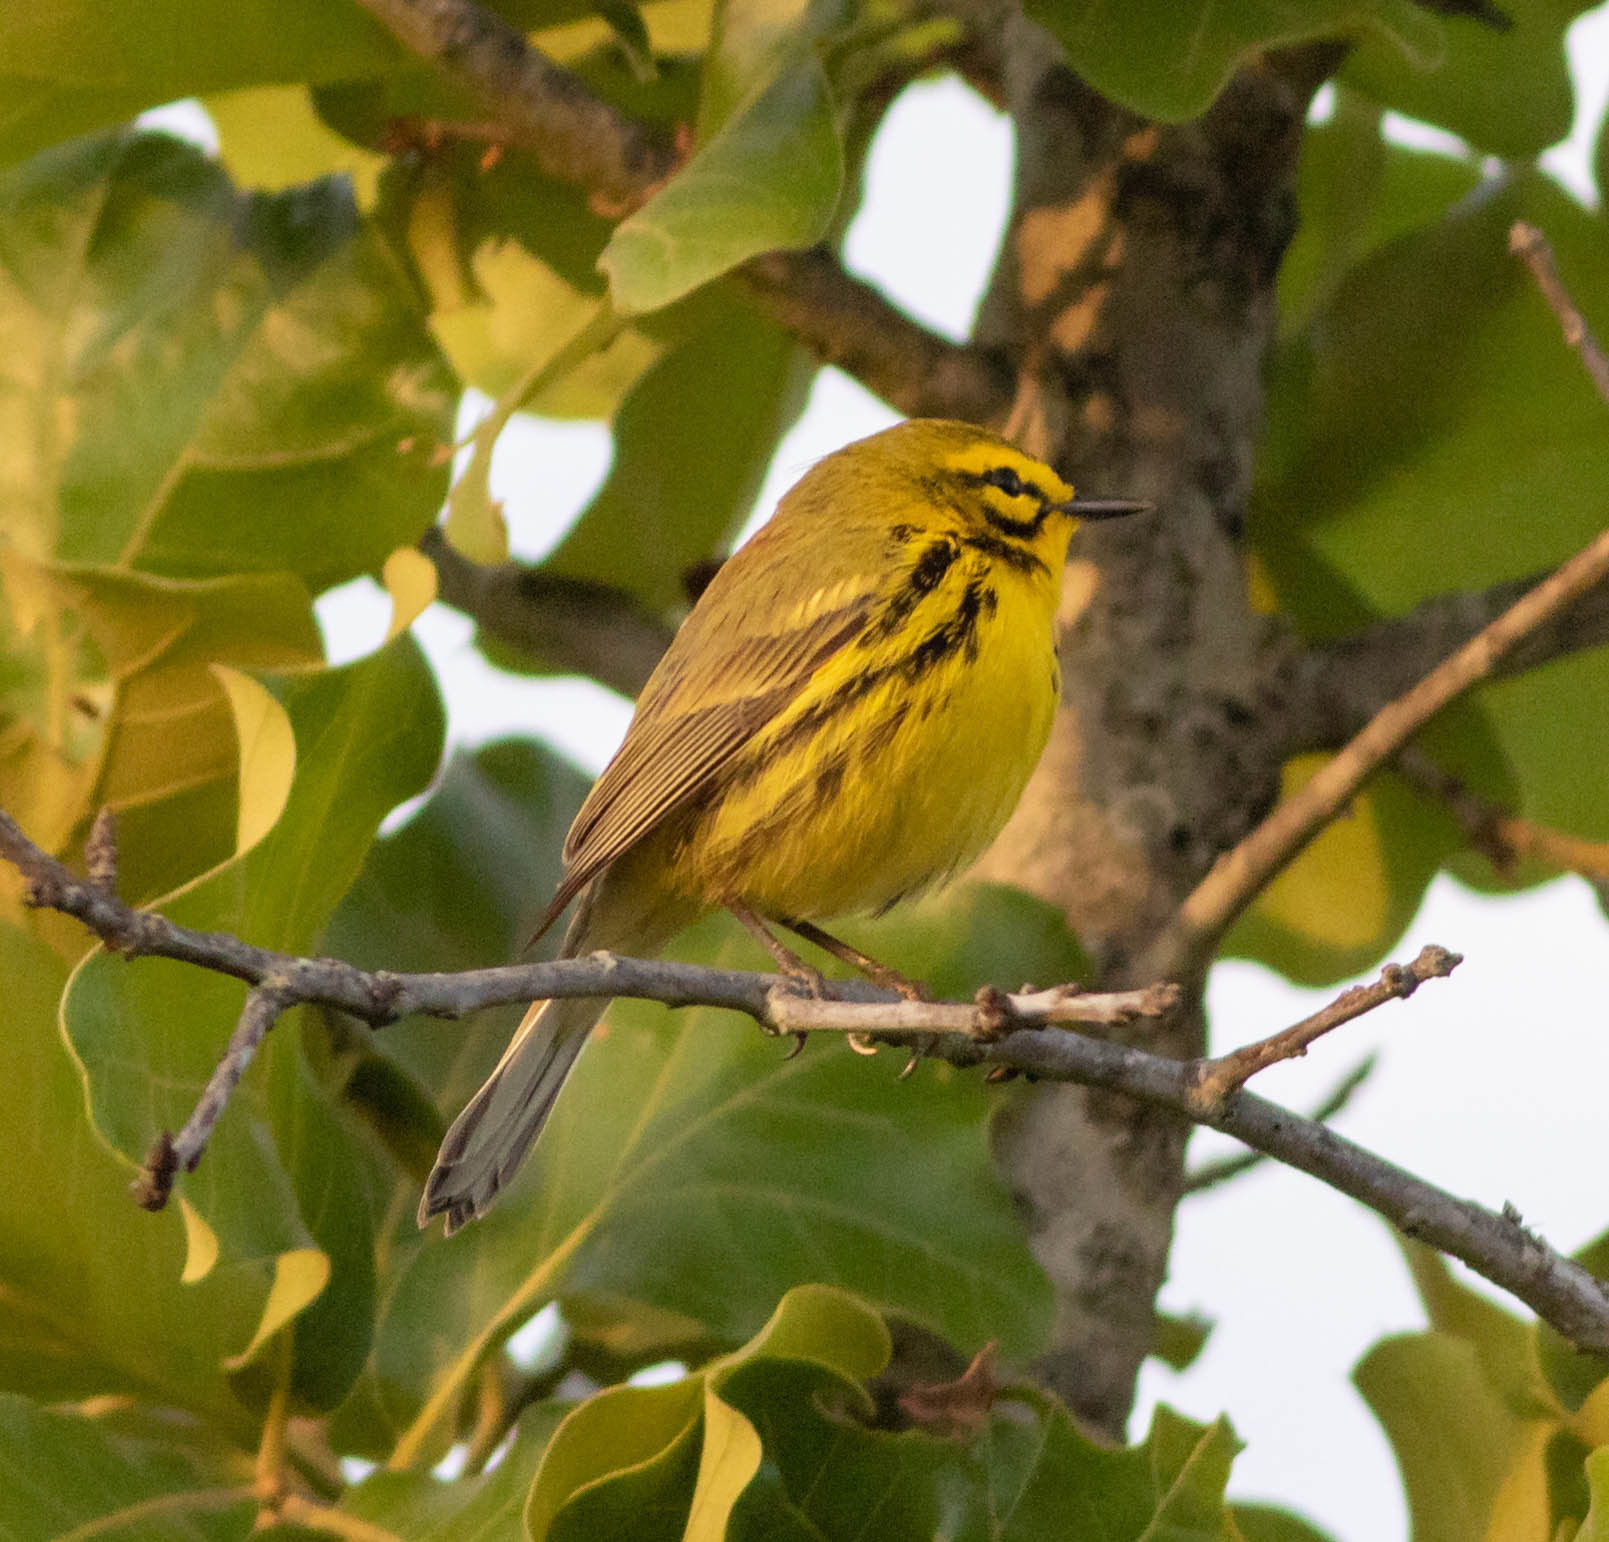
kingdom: Animalia
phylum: Chordata
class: Aves
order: Passeriformes
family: Parulidae
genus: Setophaga
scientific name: Setophaga discolor
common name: Prairie warbler
